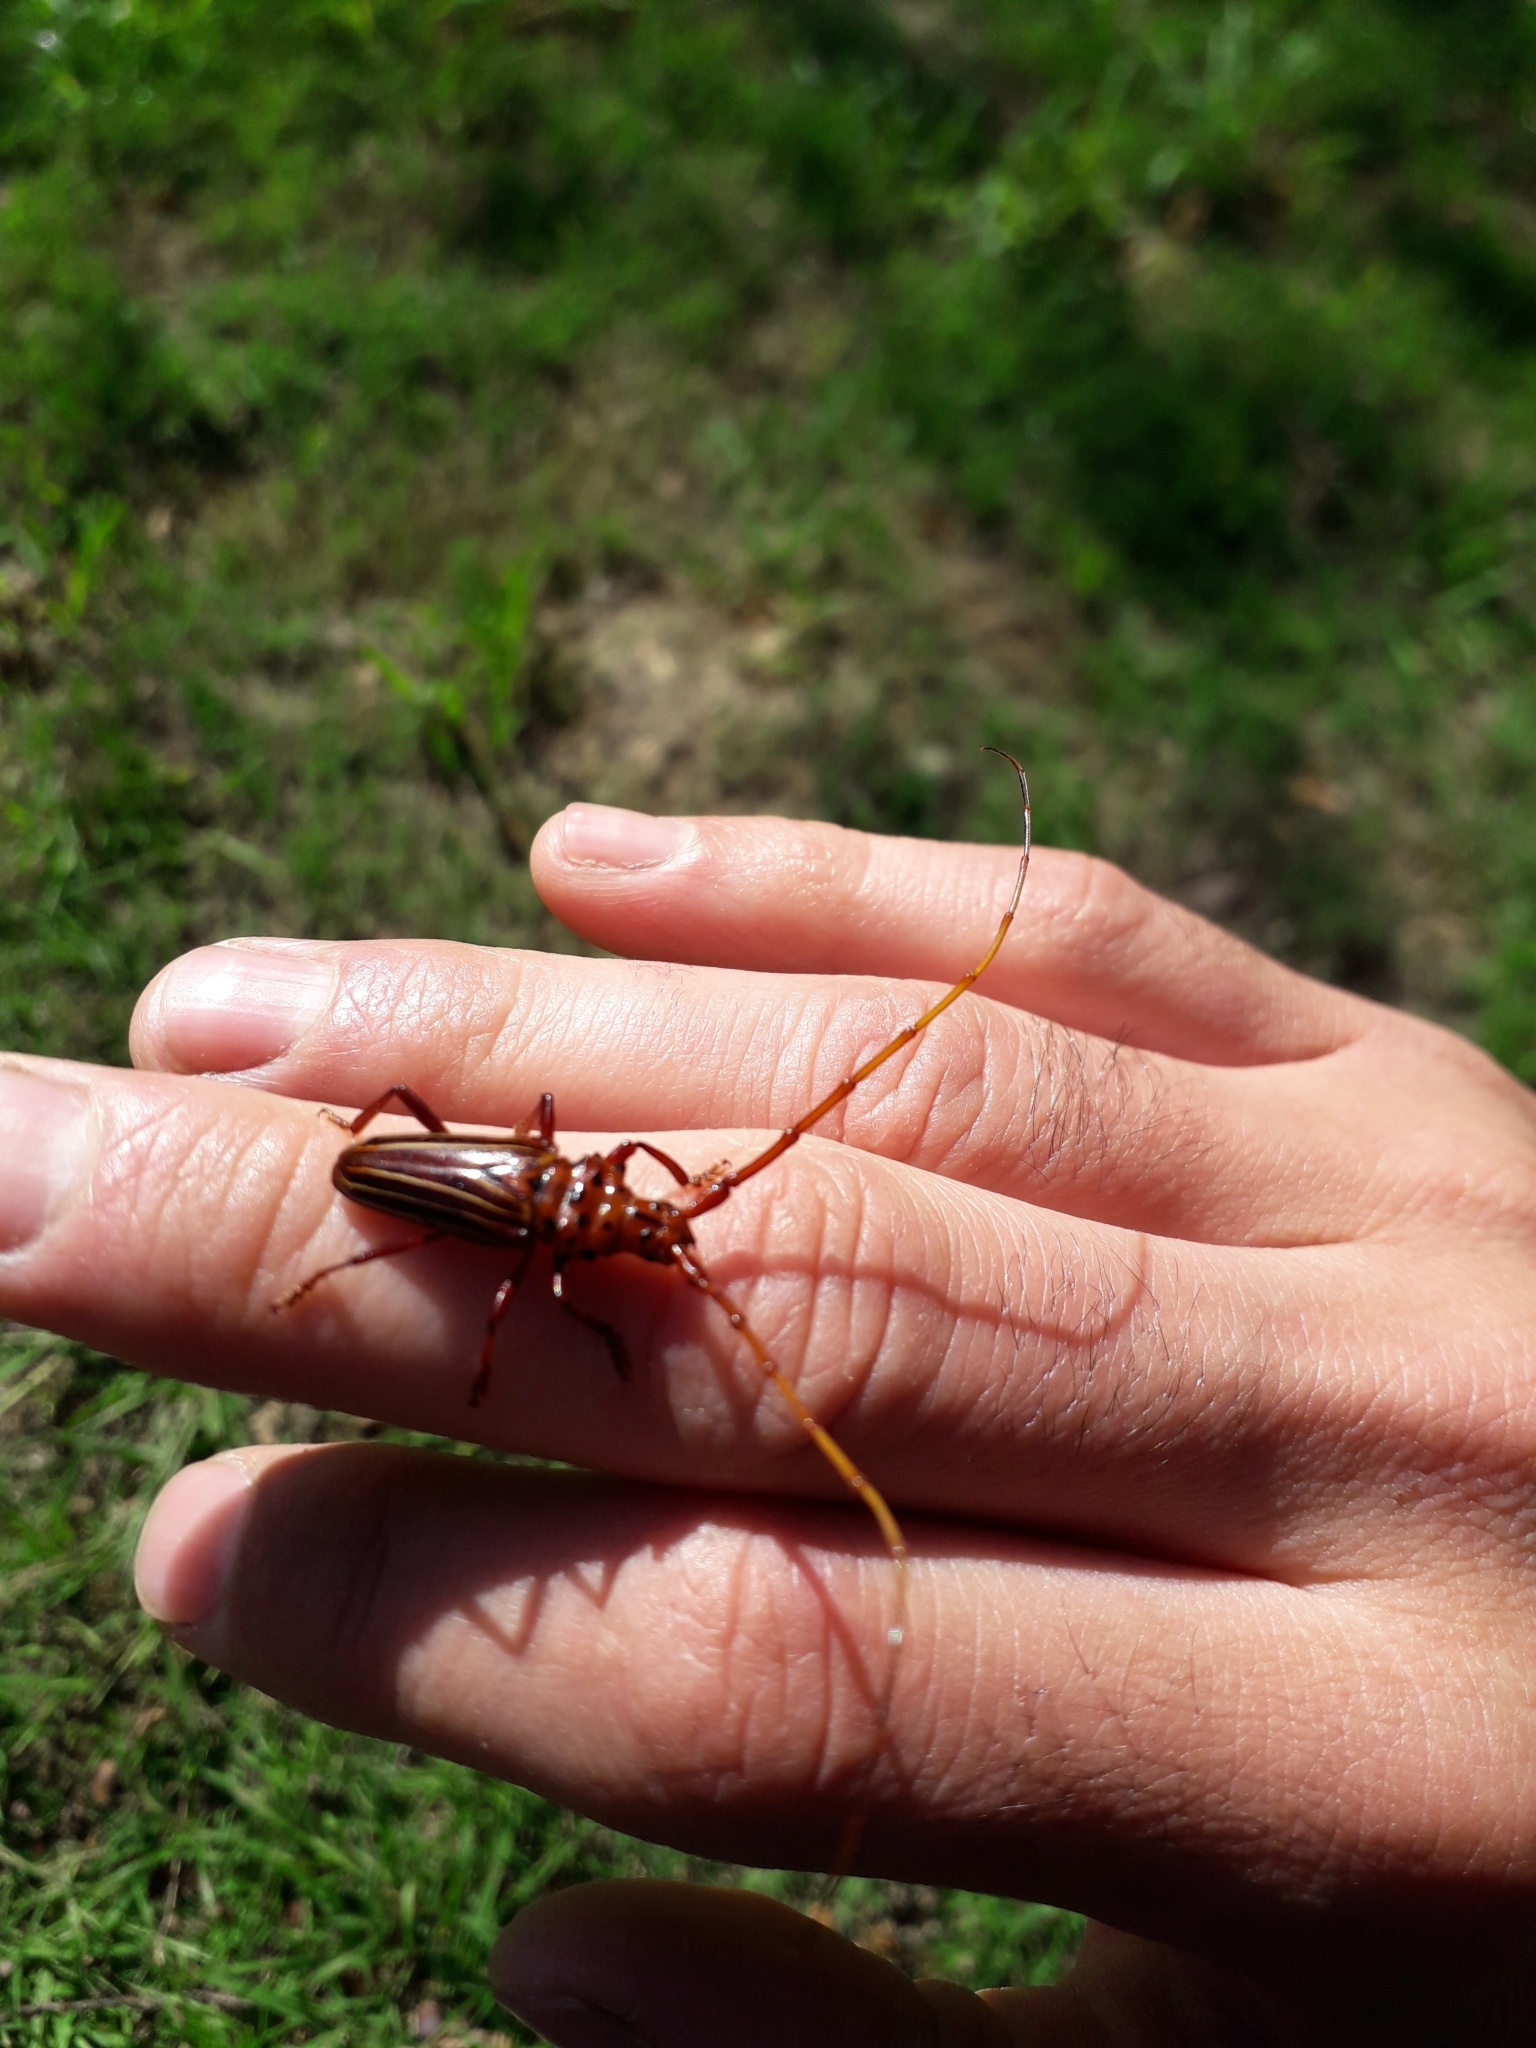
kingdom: Animalia
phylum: Arthropoda
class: Insecta
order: Coleoptera
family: Cerambycidae
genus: Chydarteres
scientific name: Chydarteres striatus
